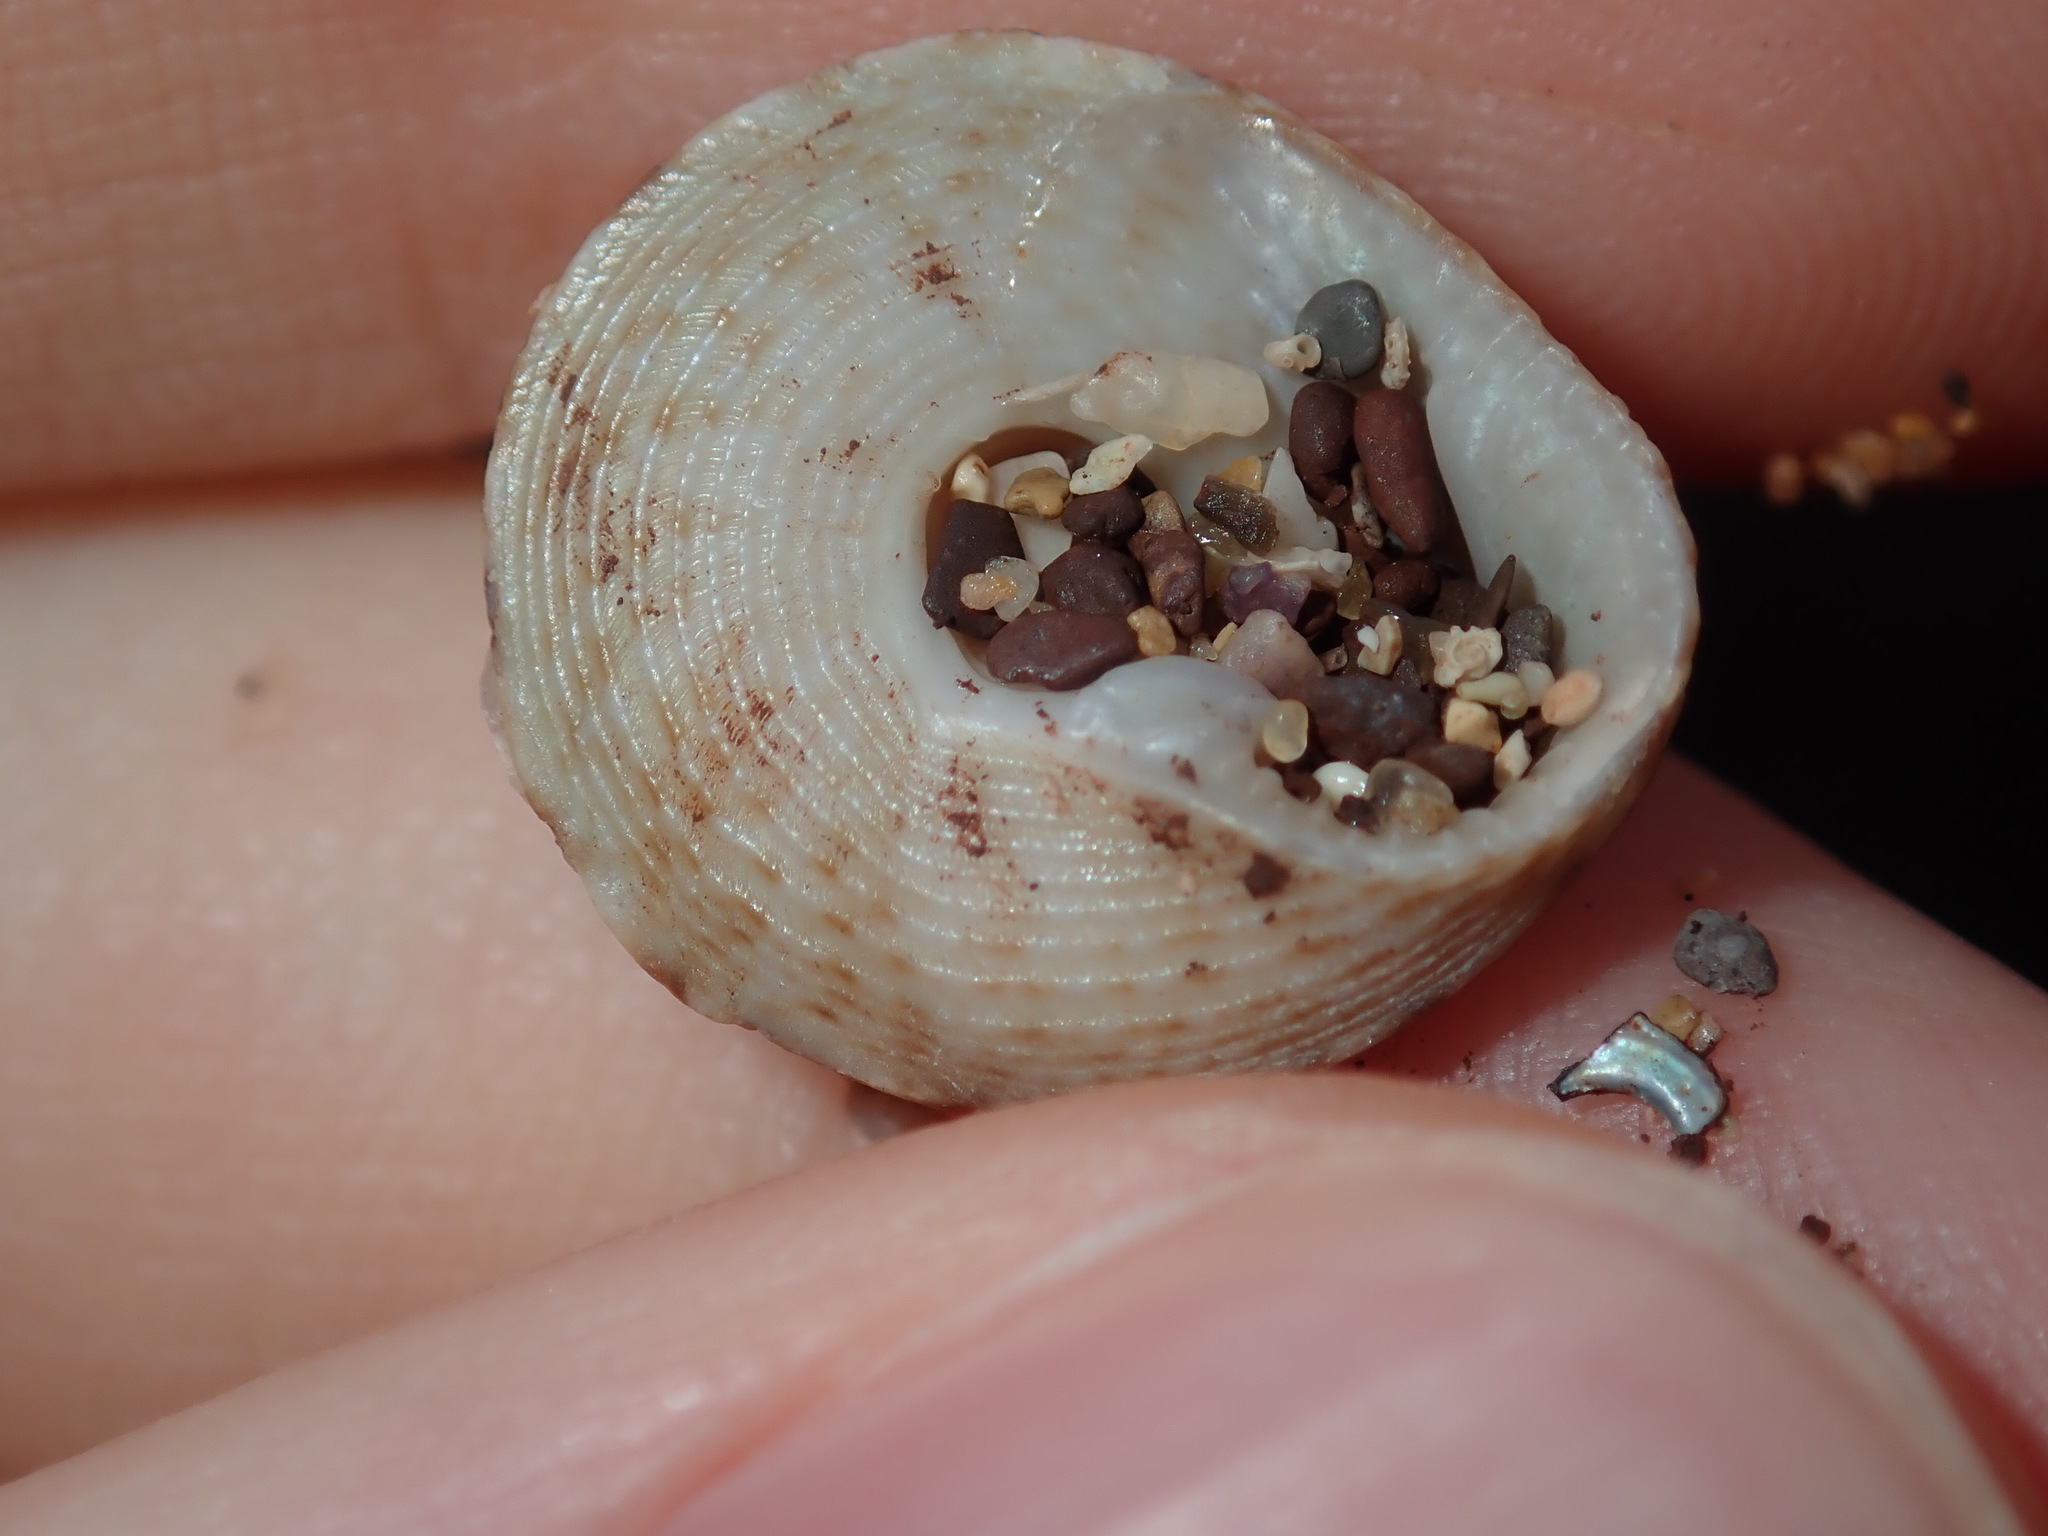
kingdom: Animalia
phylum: Mollusca
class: Gastropoda
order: Trochida
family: Trochidae
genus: Clanculus
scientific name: Clanculus brunneus
